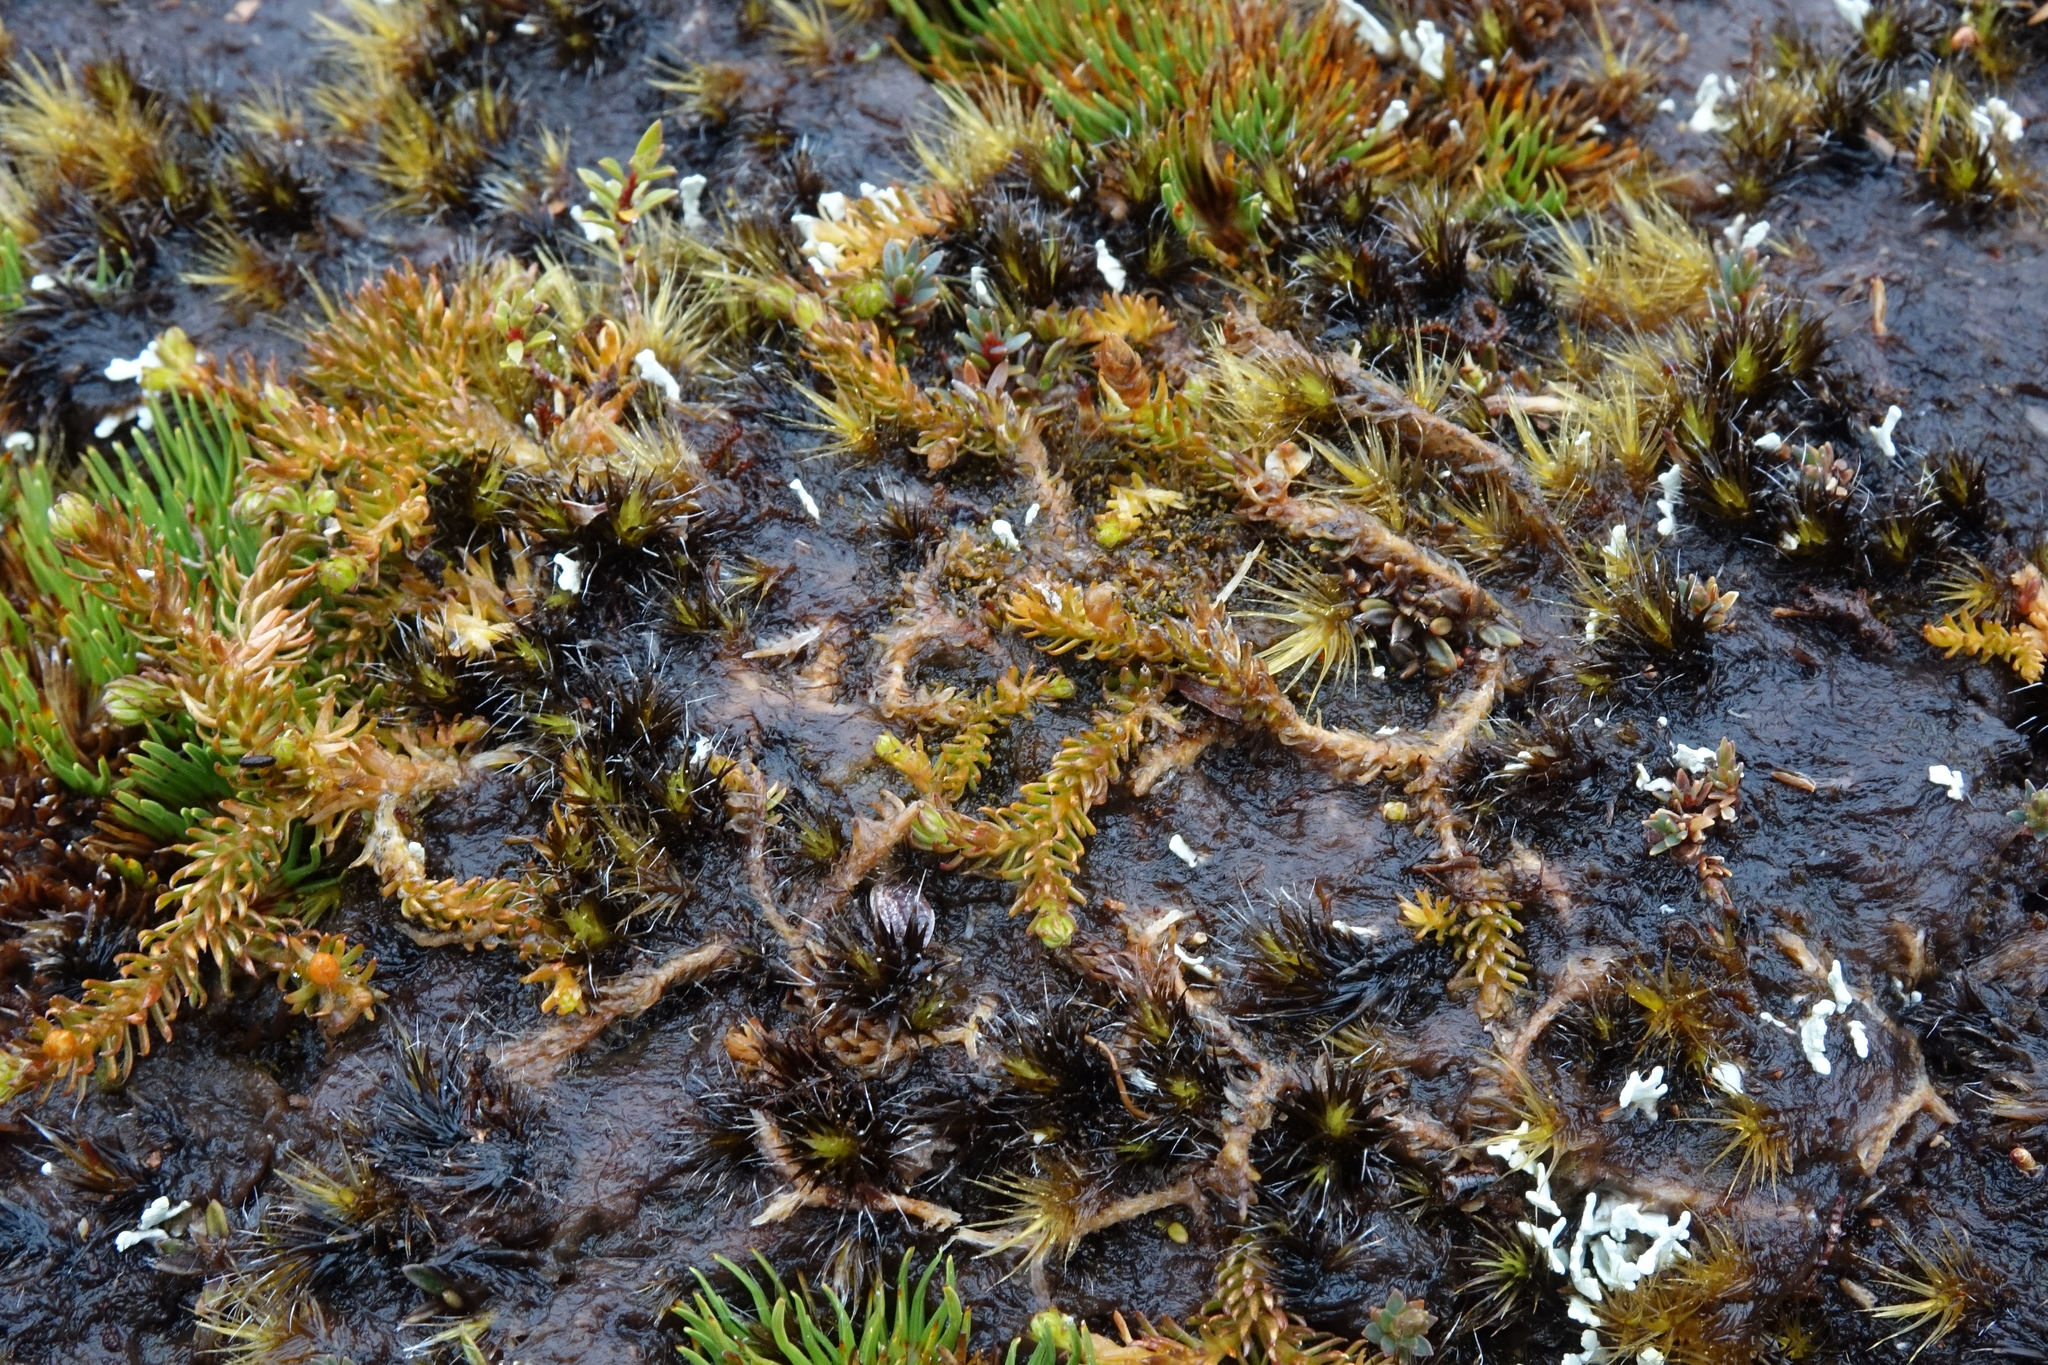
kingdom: Plantae
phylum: Tracheophyta
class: Lycopodiopsida
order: Lycopodiales
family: Lycopodiaceae
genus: Lateristachys
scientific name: Lateristachys diffusa
